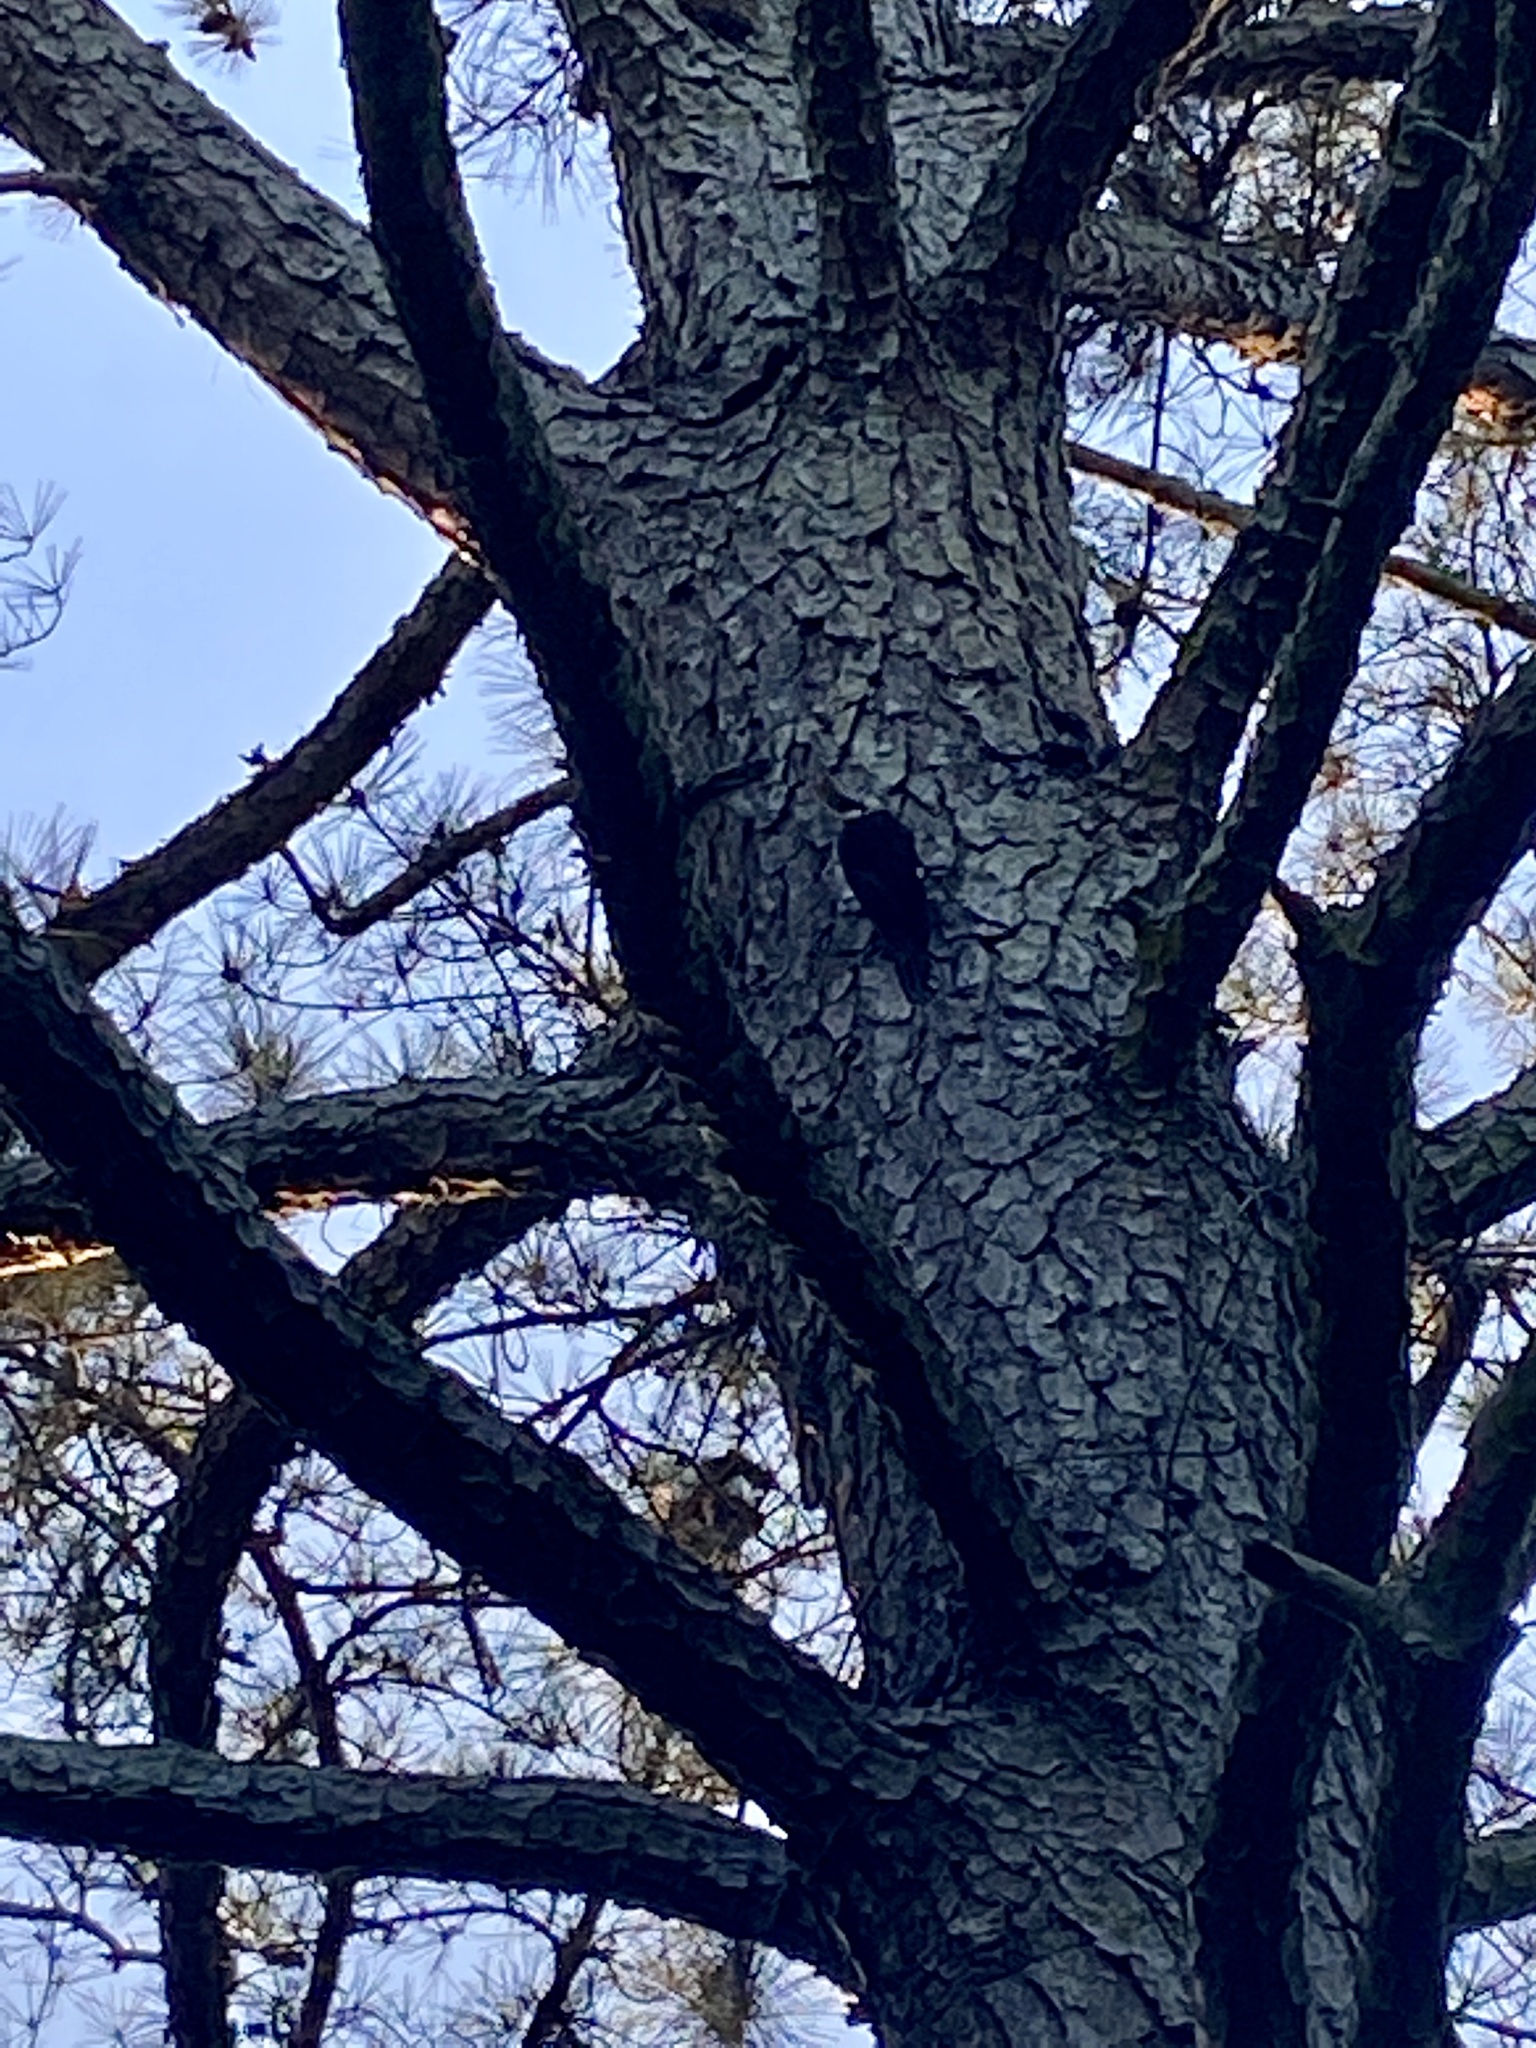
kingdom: Animalia
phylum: Chordata
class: Aves
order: Piciformes
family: Picidae
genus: Dryocopus
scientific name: Dryocopus pileatus
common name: Pileated woodpecker
